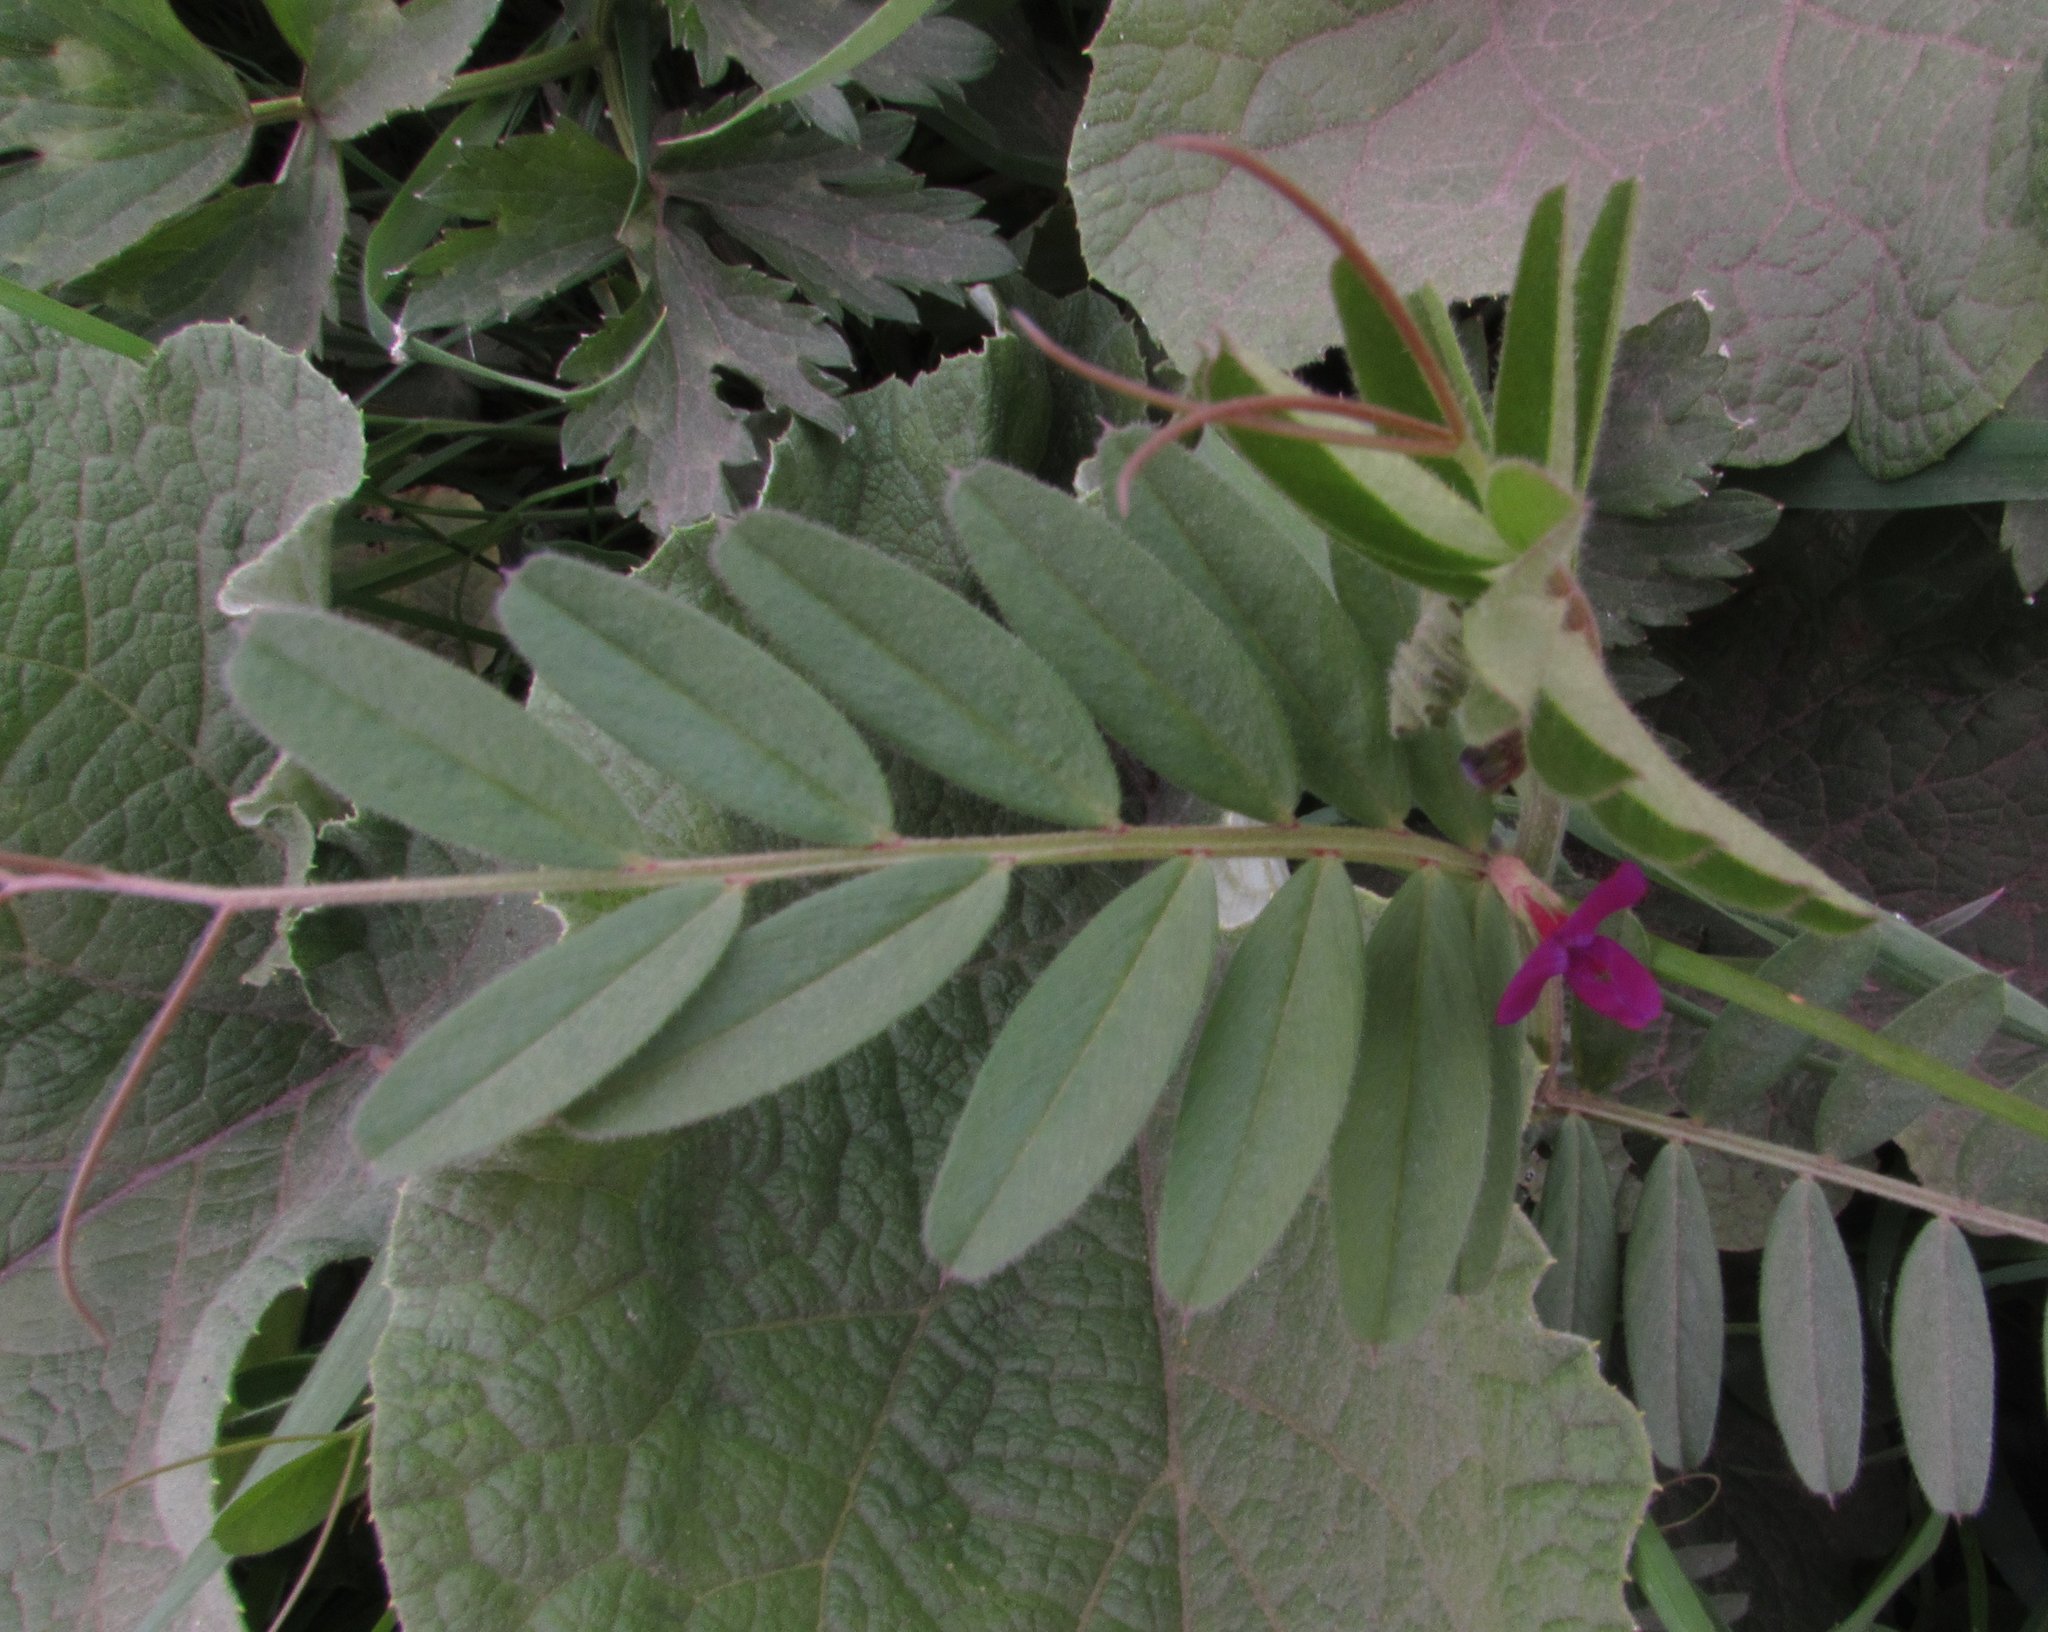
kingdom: Plantae
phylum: Tracheophyta
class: Magnoliopsida
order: Fabales
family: Fabaceae
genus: Vicia
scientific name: Vicia sativa
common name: Garden vetch
